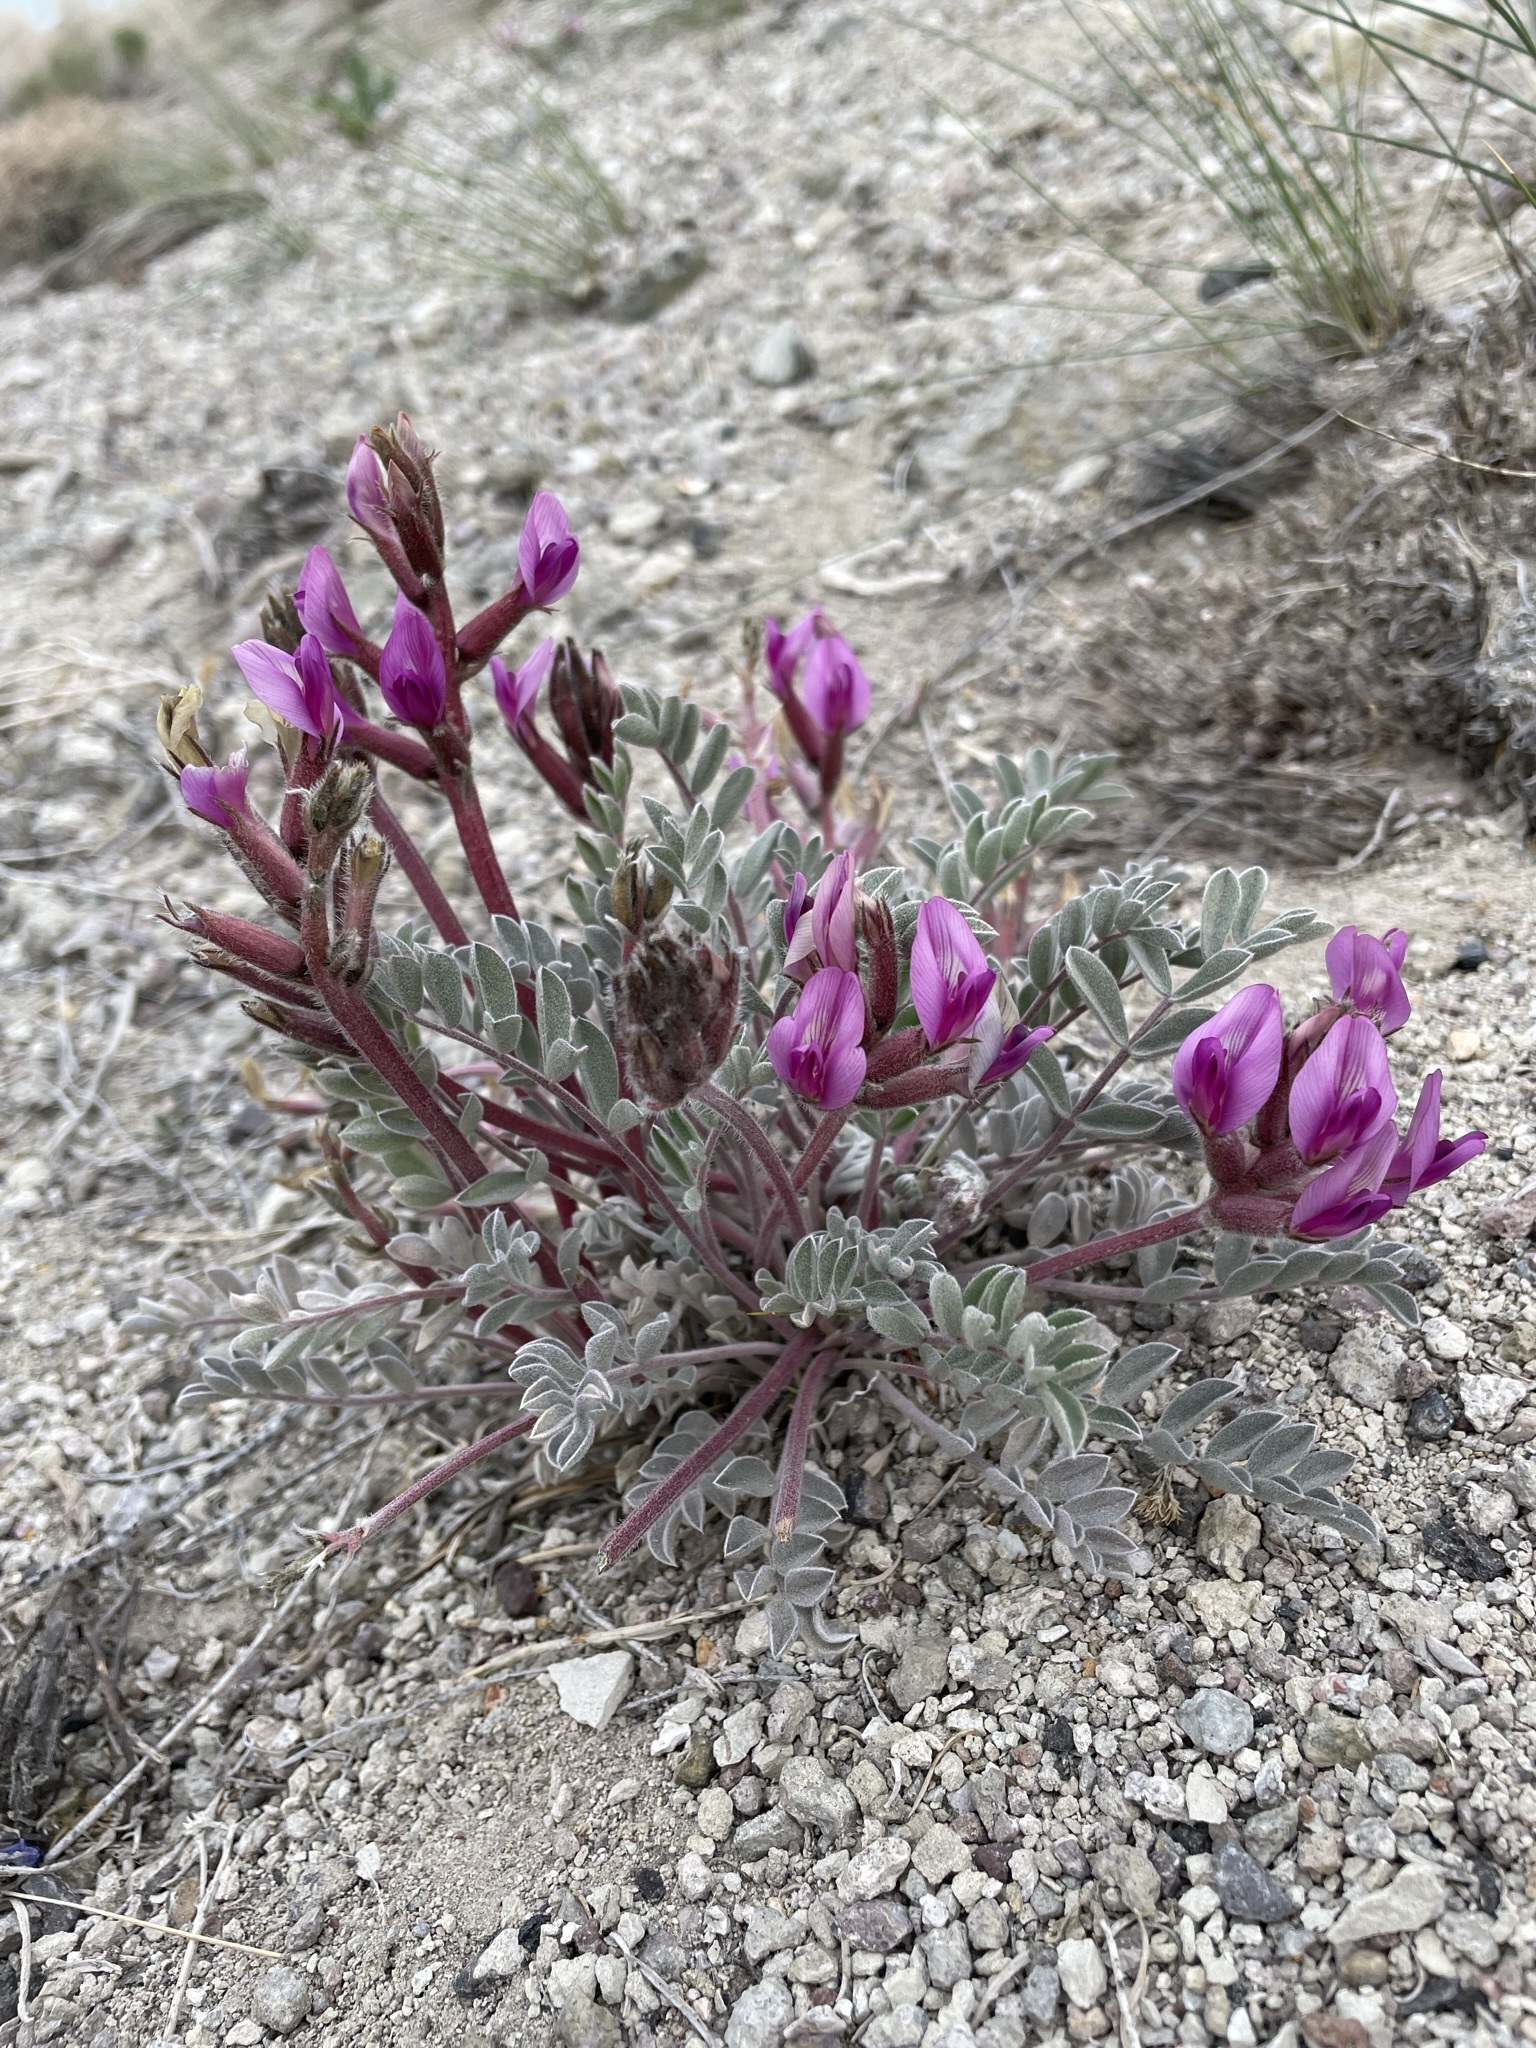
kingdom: Plantae
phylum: Tracheophyta
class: Magnoliopsida
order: Fabales
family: Fabaceae
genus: Astragalus
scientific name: Astragalus newberryi
